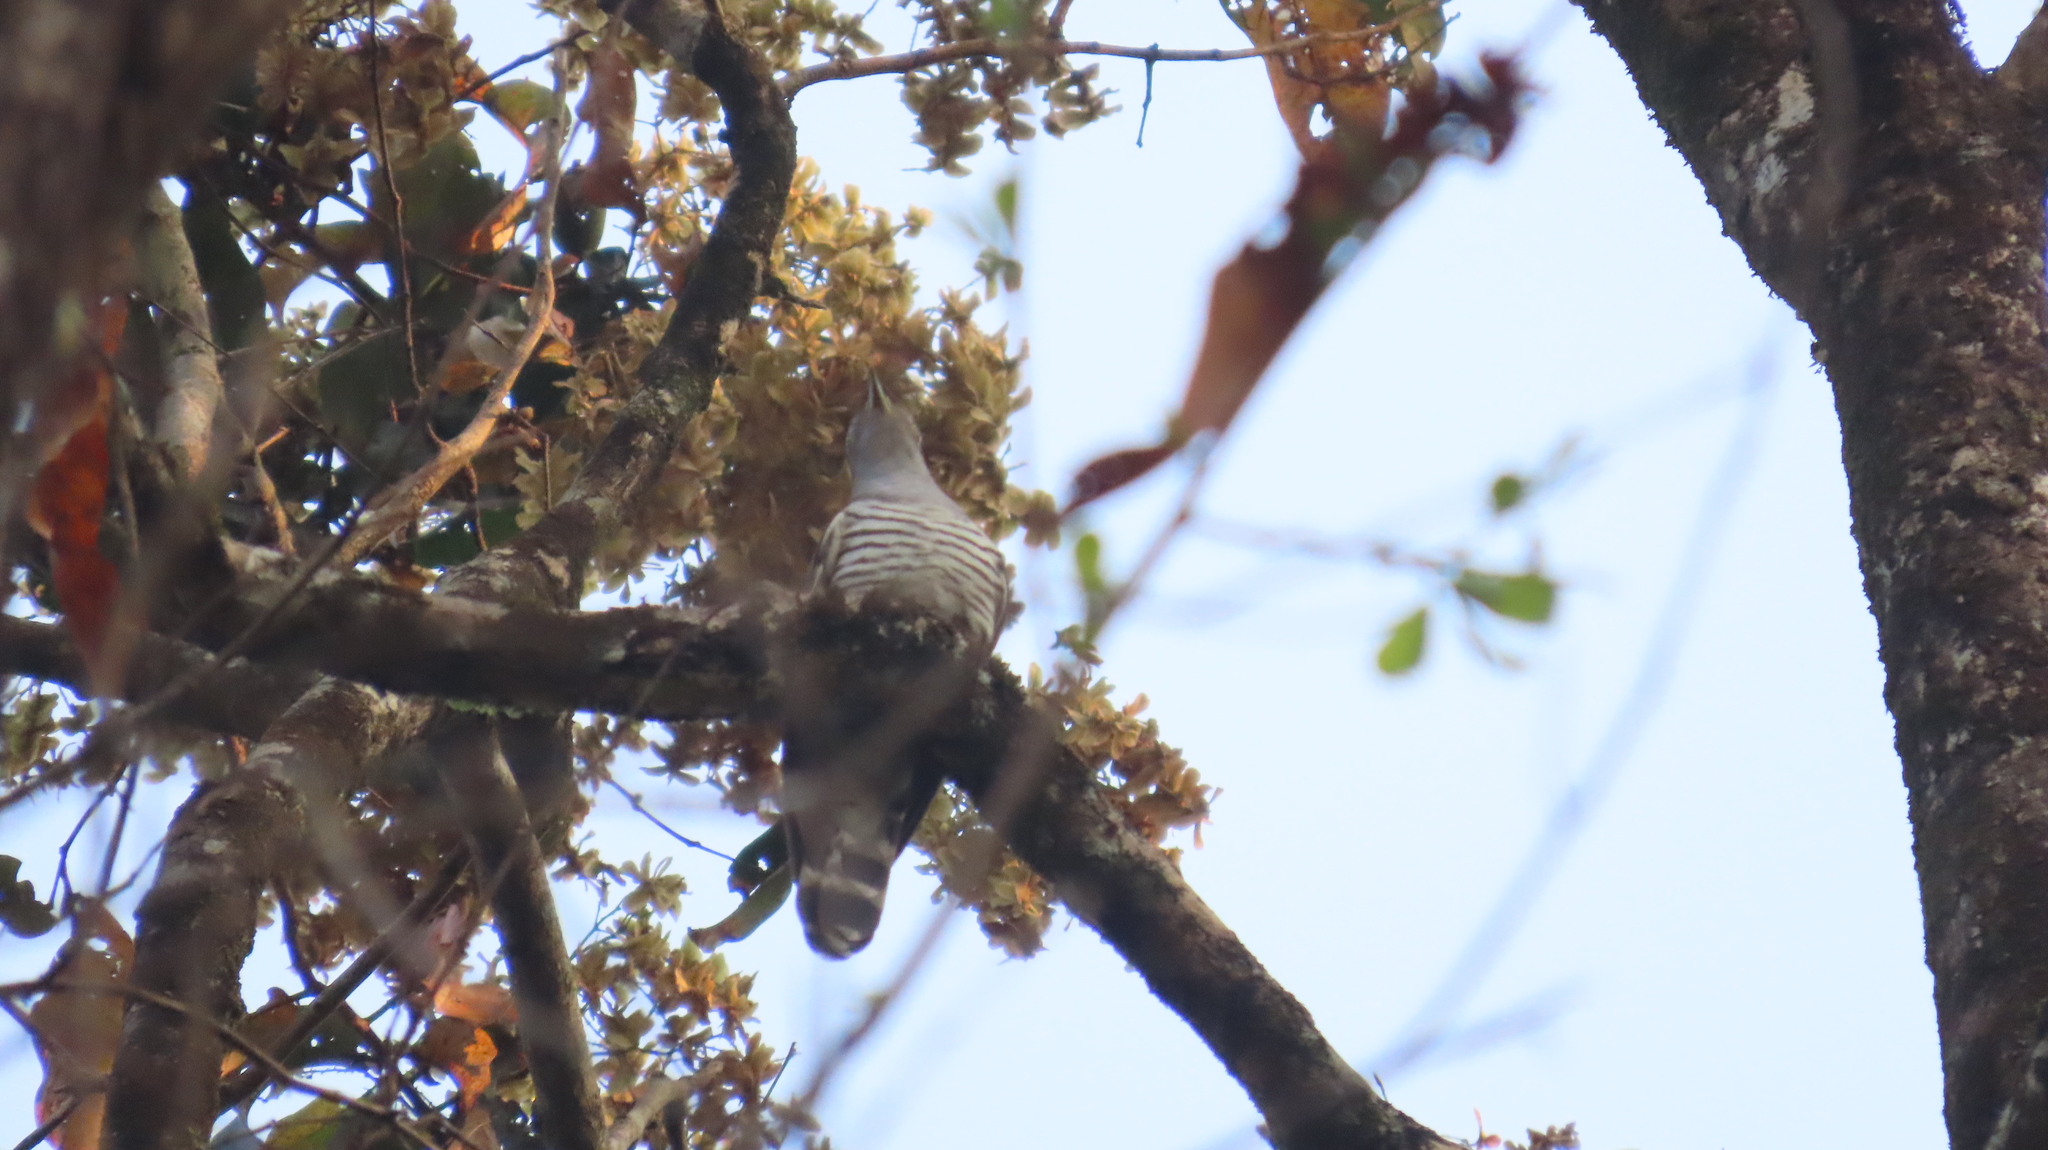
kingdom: Animalia
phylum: Chordata
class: Aves
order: Cuculiformes
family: Cuculidae
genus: Cuculus
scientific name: Cuculus micropterus
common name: Indian cuckoo
